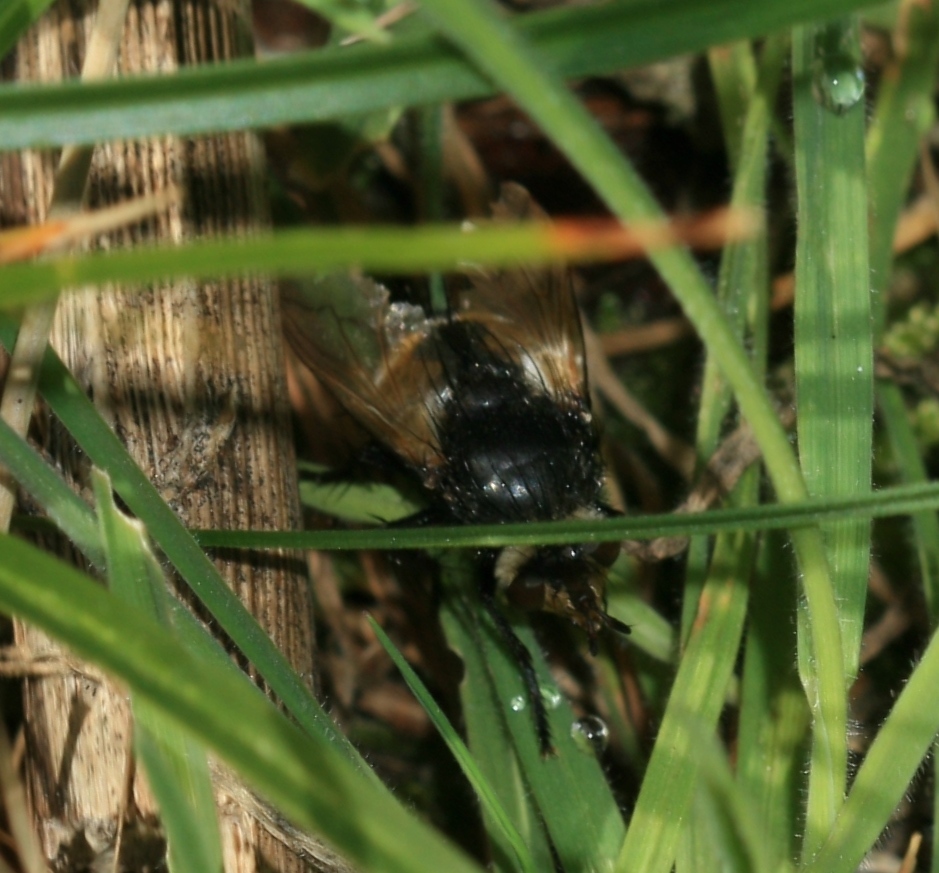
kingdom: Animalia
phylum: Arthropoda
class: Insecta
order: Diptera
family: Tachinidae
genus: Nowickia
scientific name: Nowickia ferox
